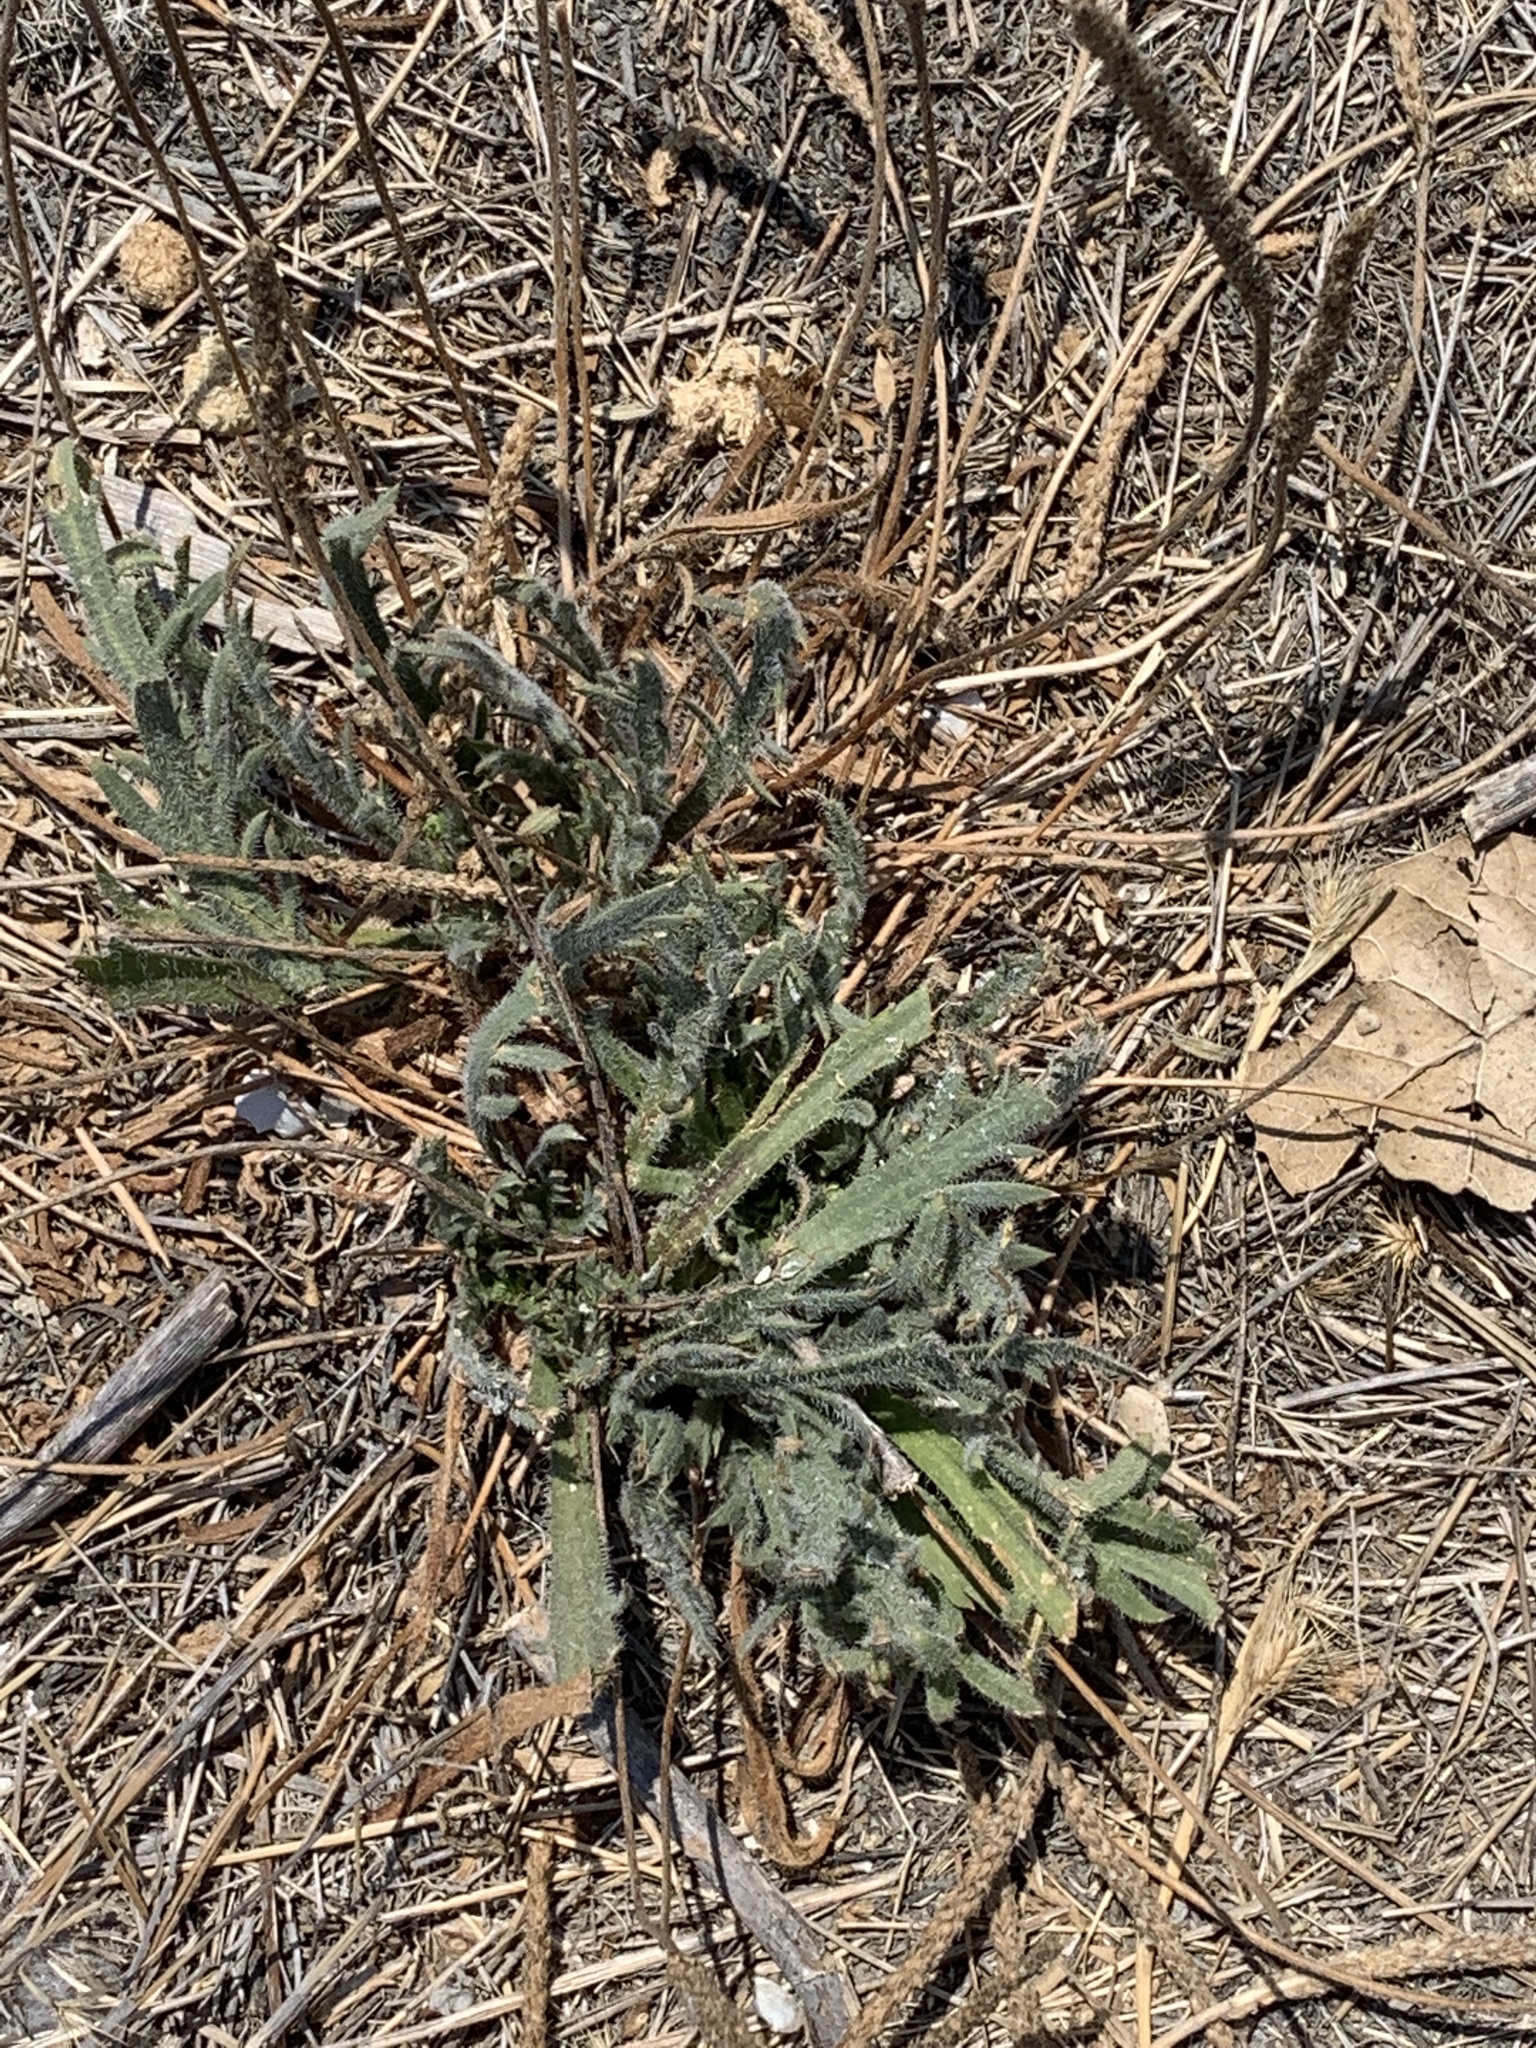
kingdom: Plantae
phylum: Tracheophyta
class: Magnoliopsida
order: Lamiales
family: Plantaginaceae
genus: Plantago
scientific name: Plantago coronopus
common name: Buck's-horn plantain
